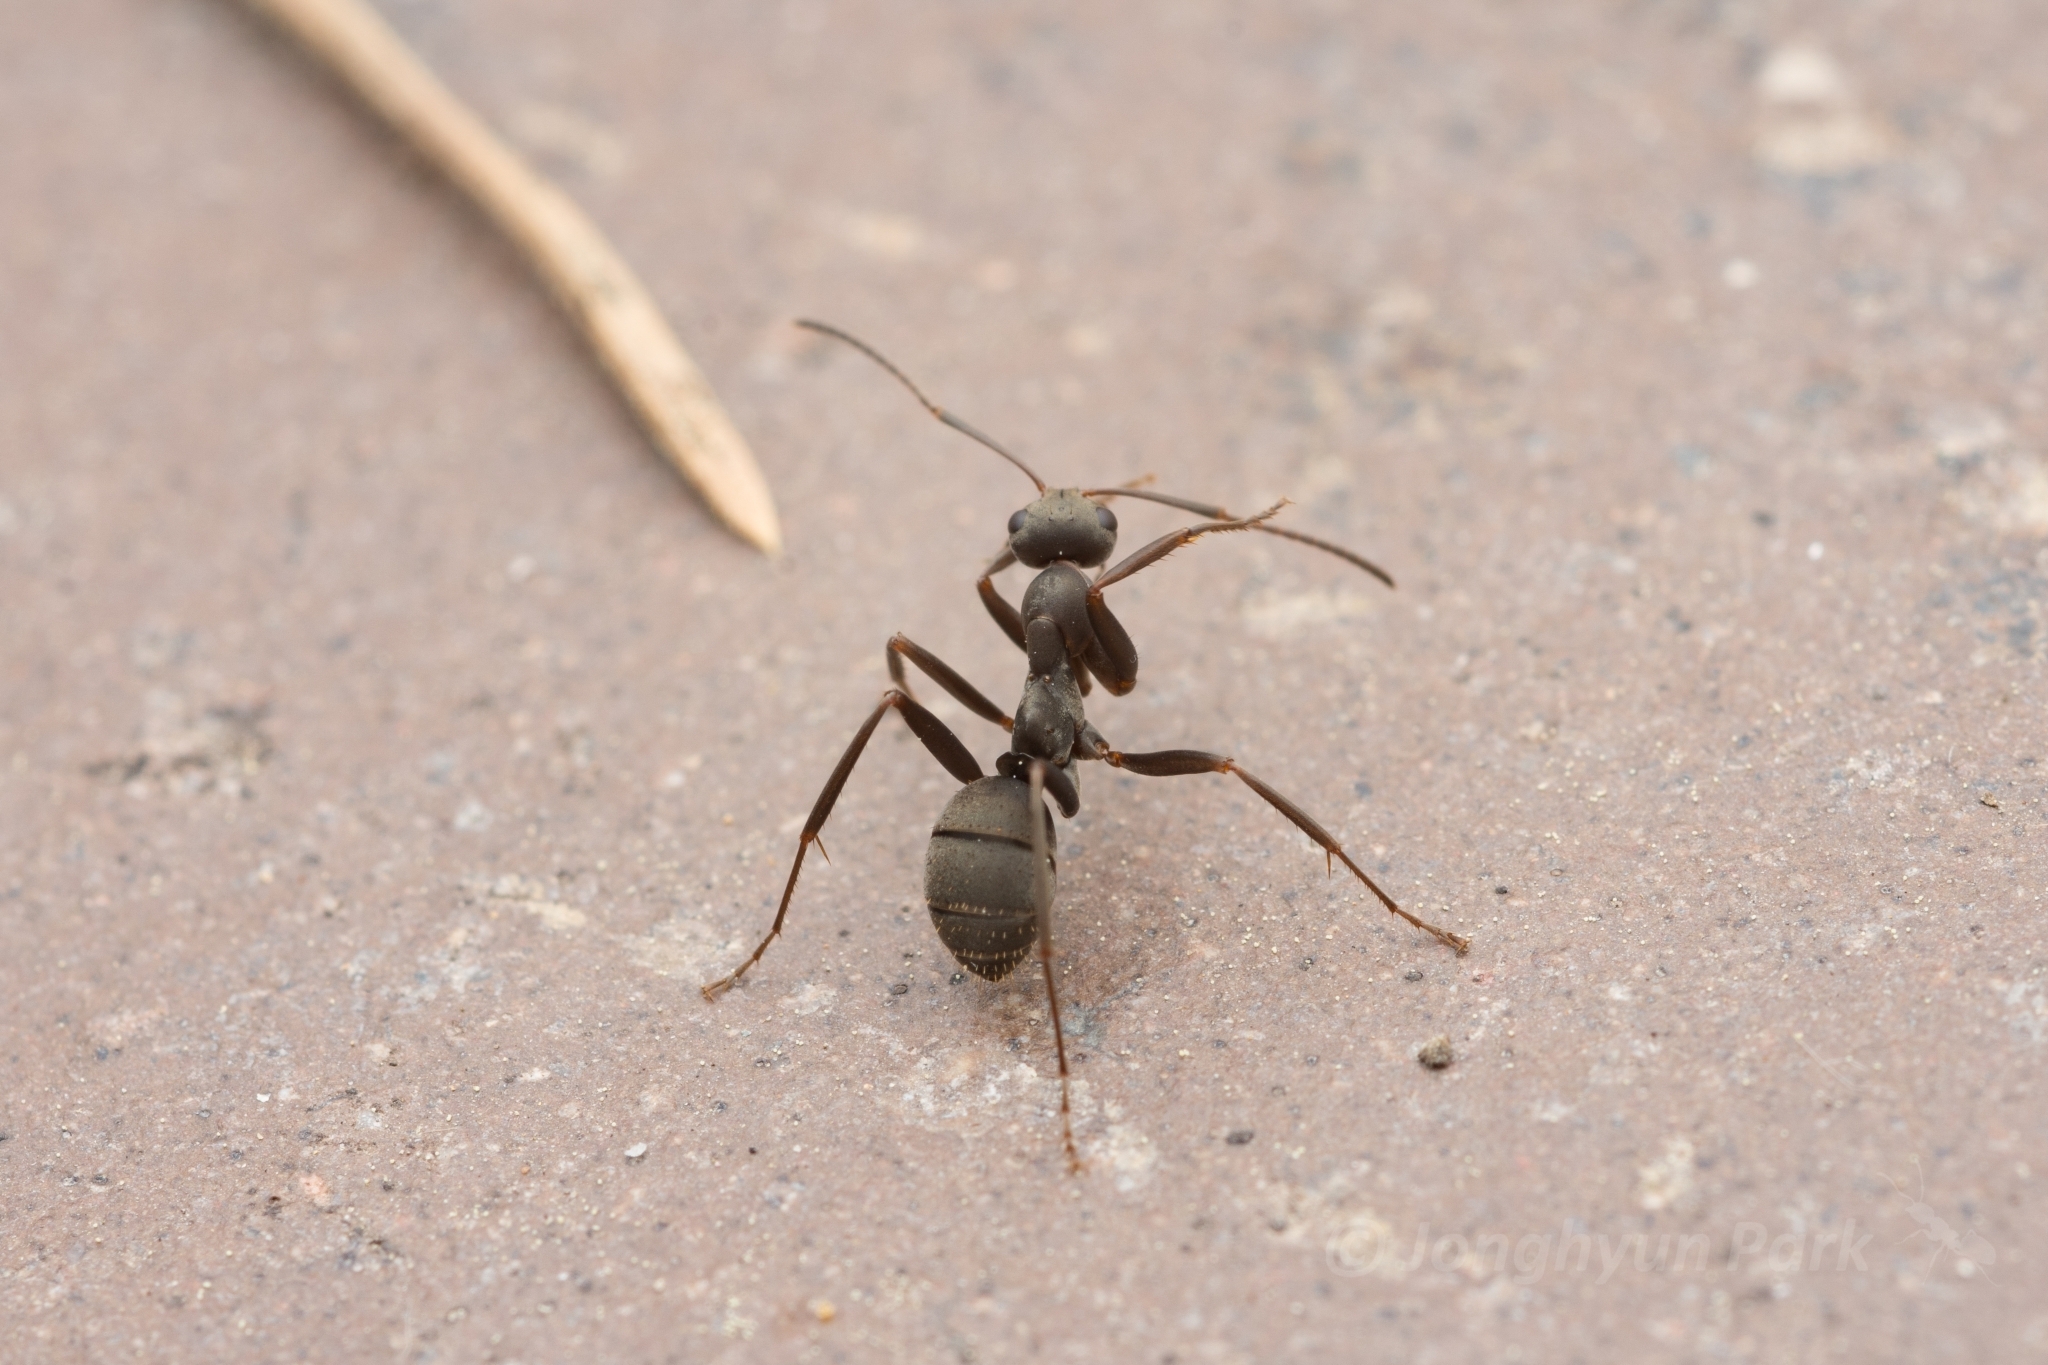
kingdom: Animalia
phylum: Arthropoda
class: Insecta
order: Hymenoptera
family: Formicidae
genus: Formica
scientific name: Formica japonica
